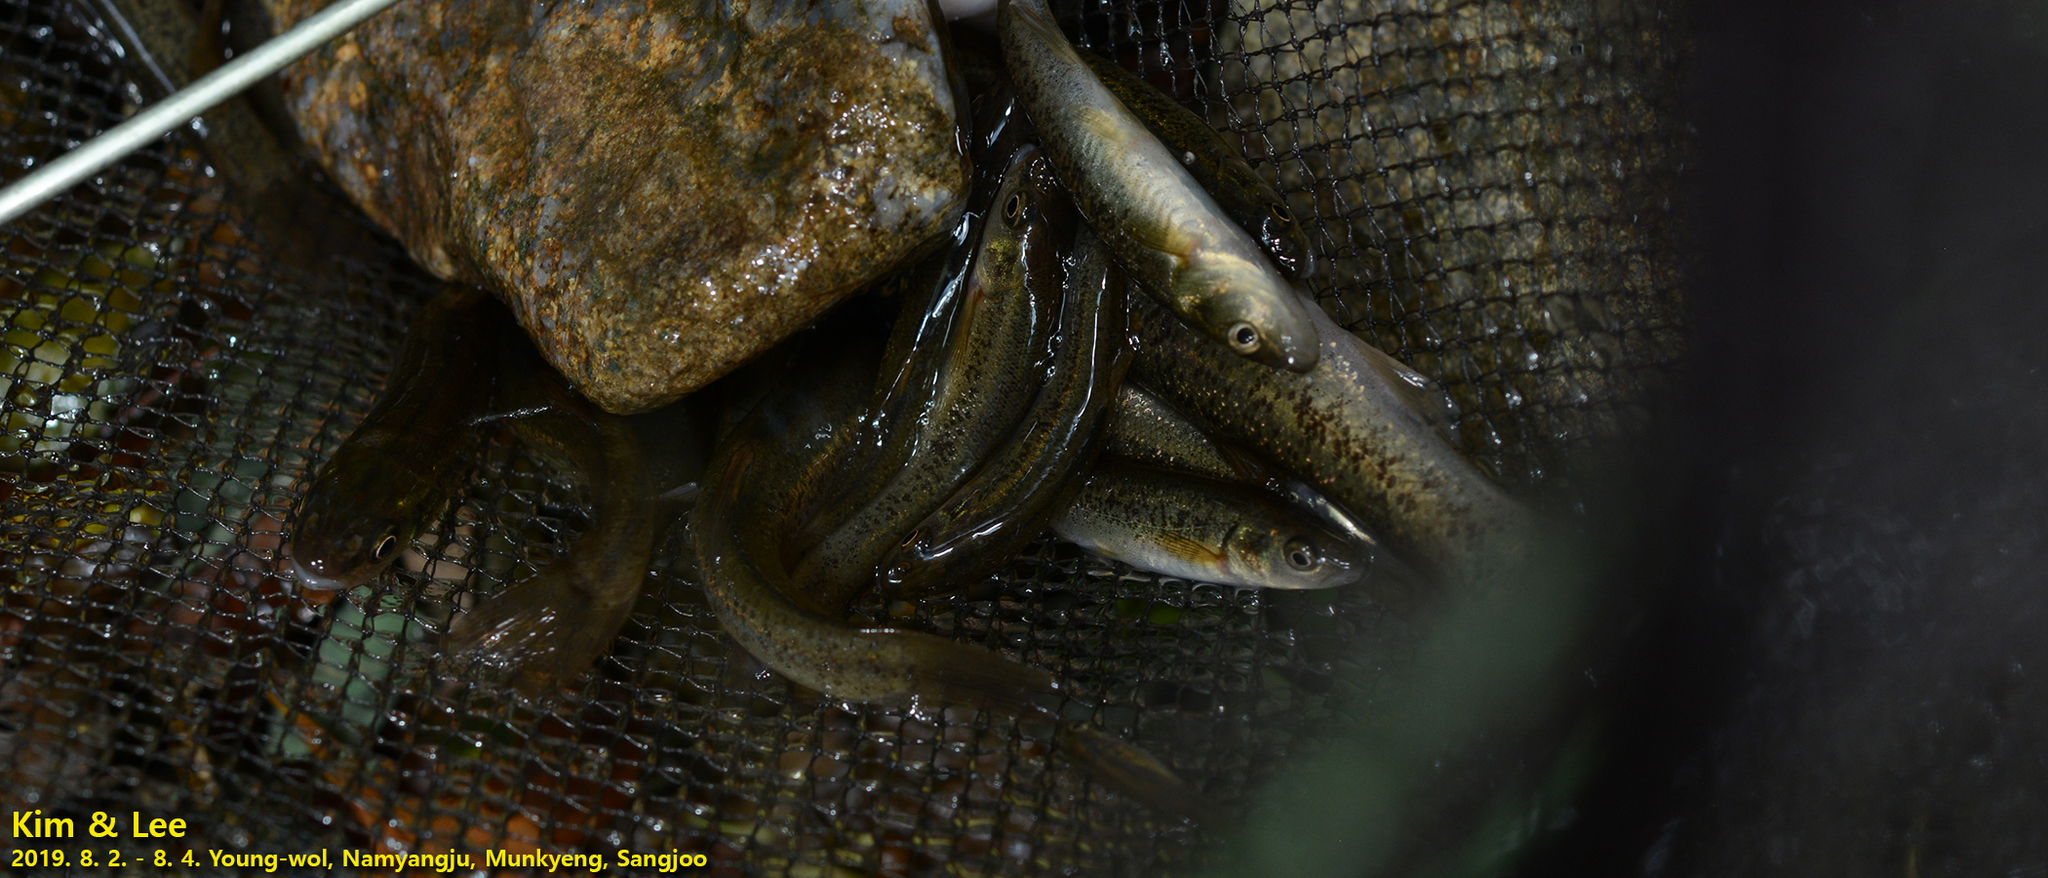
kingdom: Animalia
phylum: Chordata
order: Cypriniformes
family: Cyprinidae
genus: Rhynchocypris
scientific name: Rhynchocypris oxycephalus
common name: Chinese minnow
